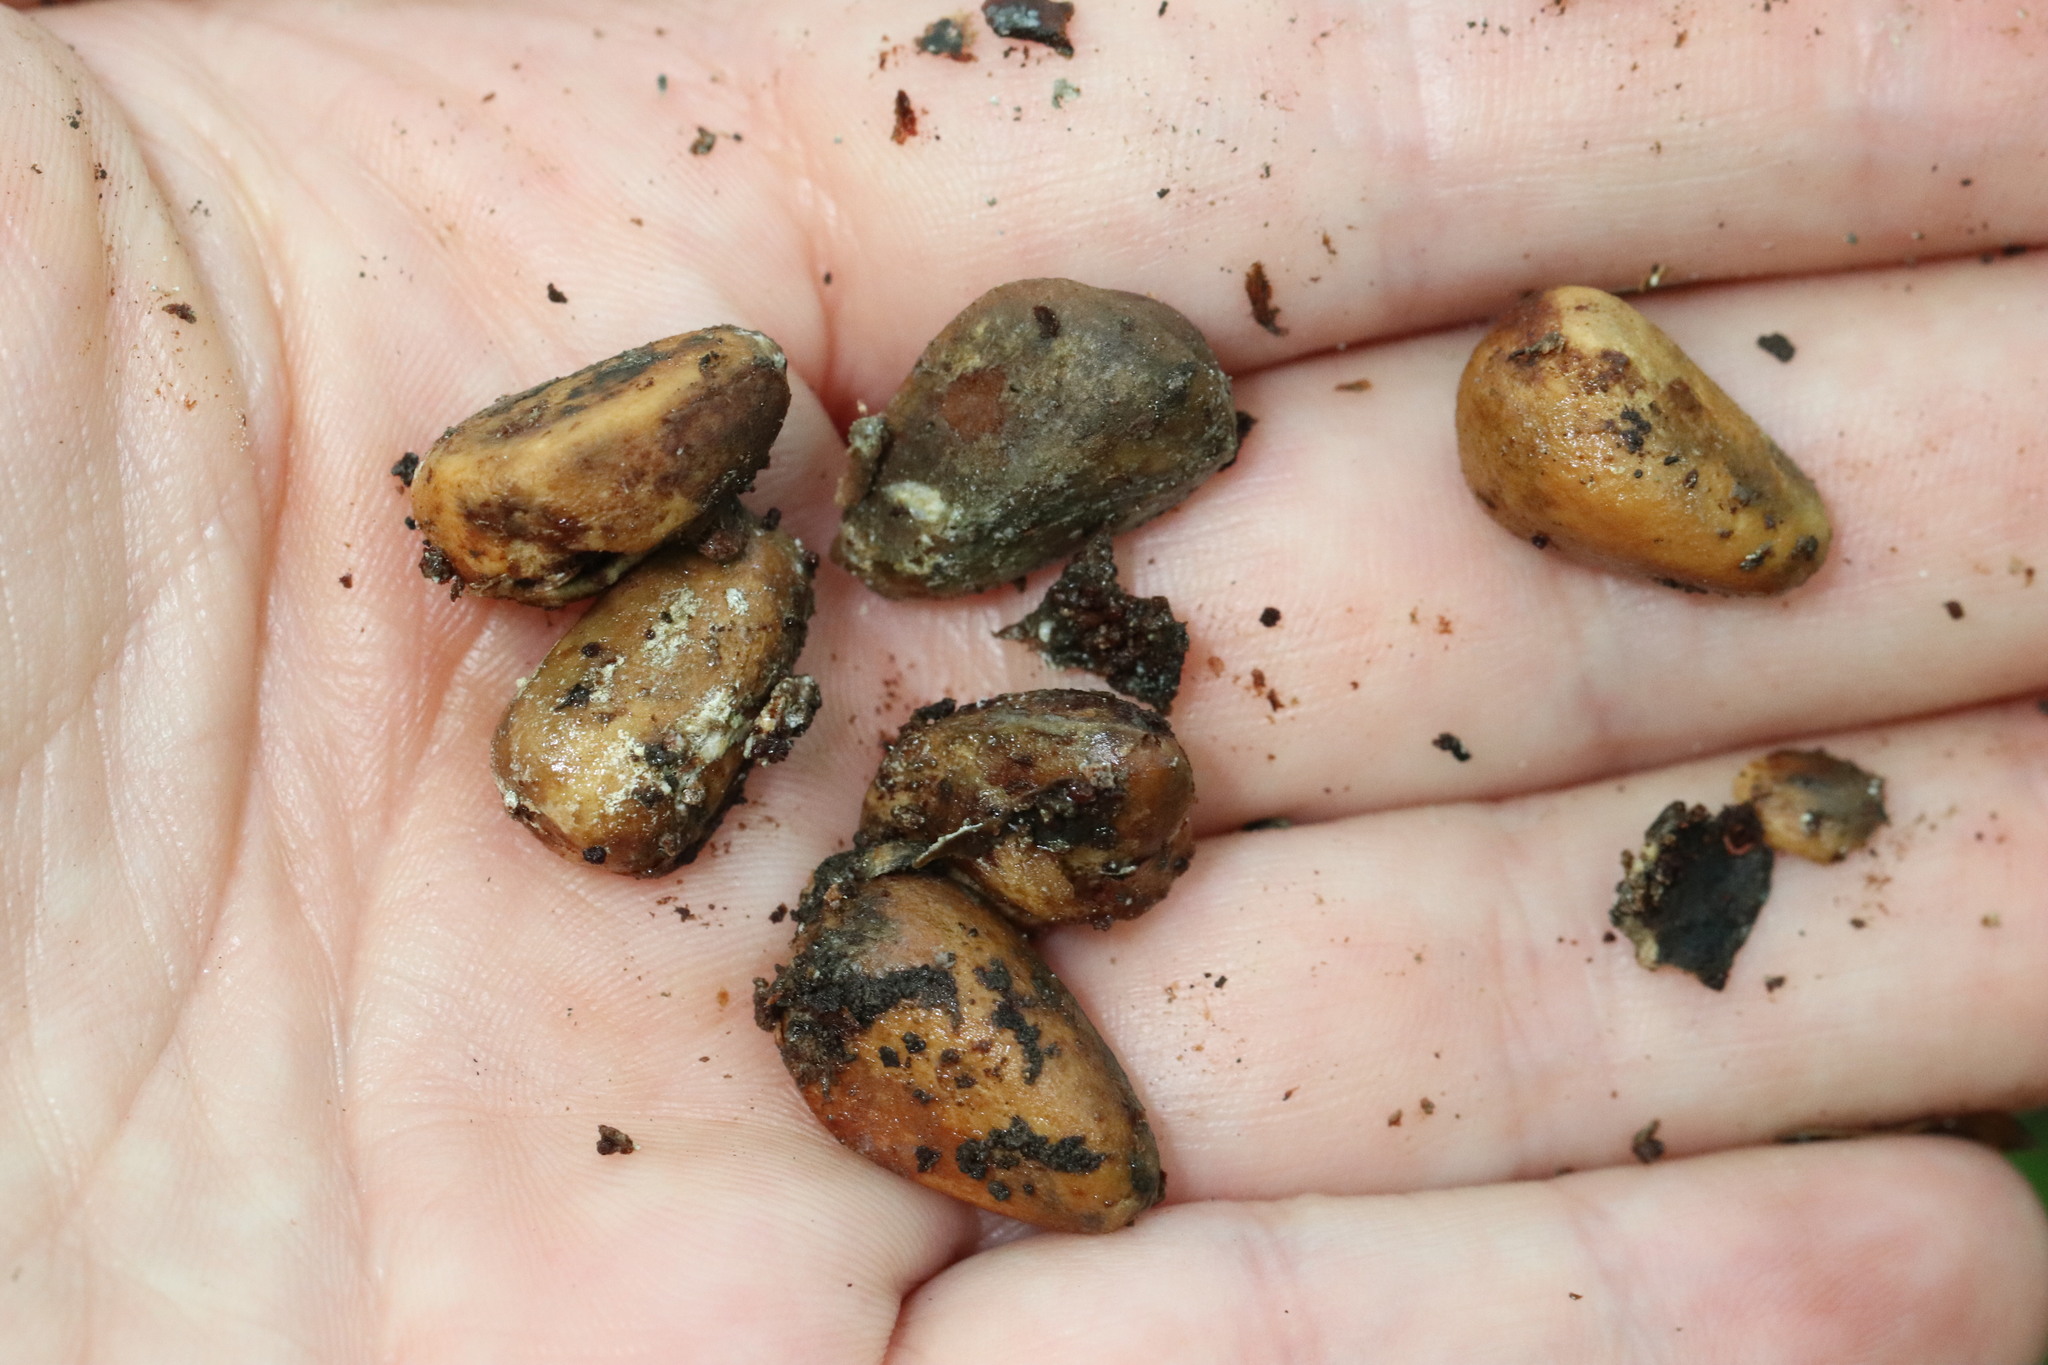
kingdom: Plantae
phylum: Tracheophyta
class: Pinopsida
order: Pinales
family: Pinaceae
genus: Pinus
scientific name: Pinus koraiensis
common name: Korean pine
